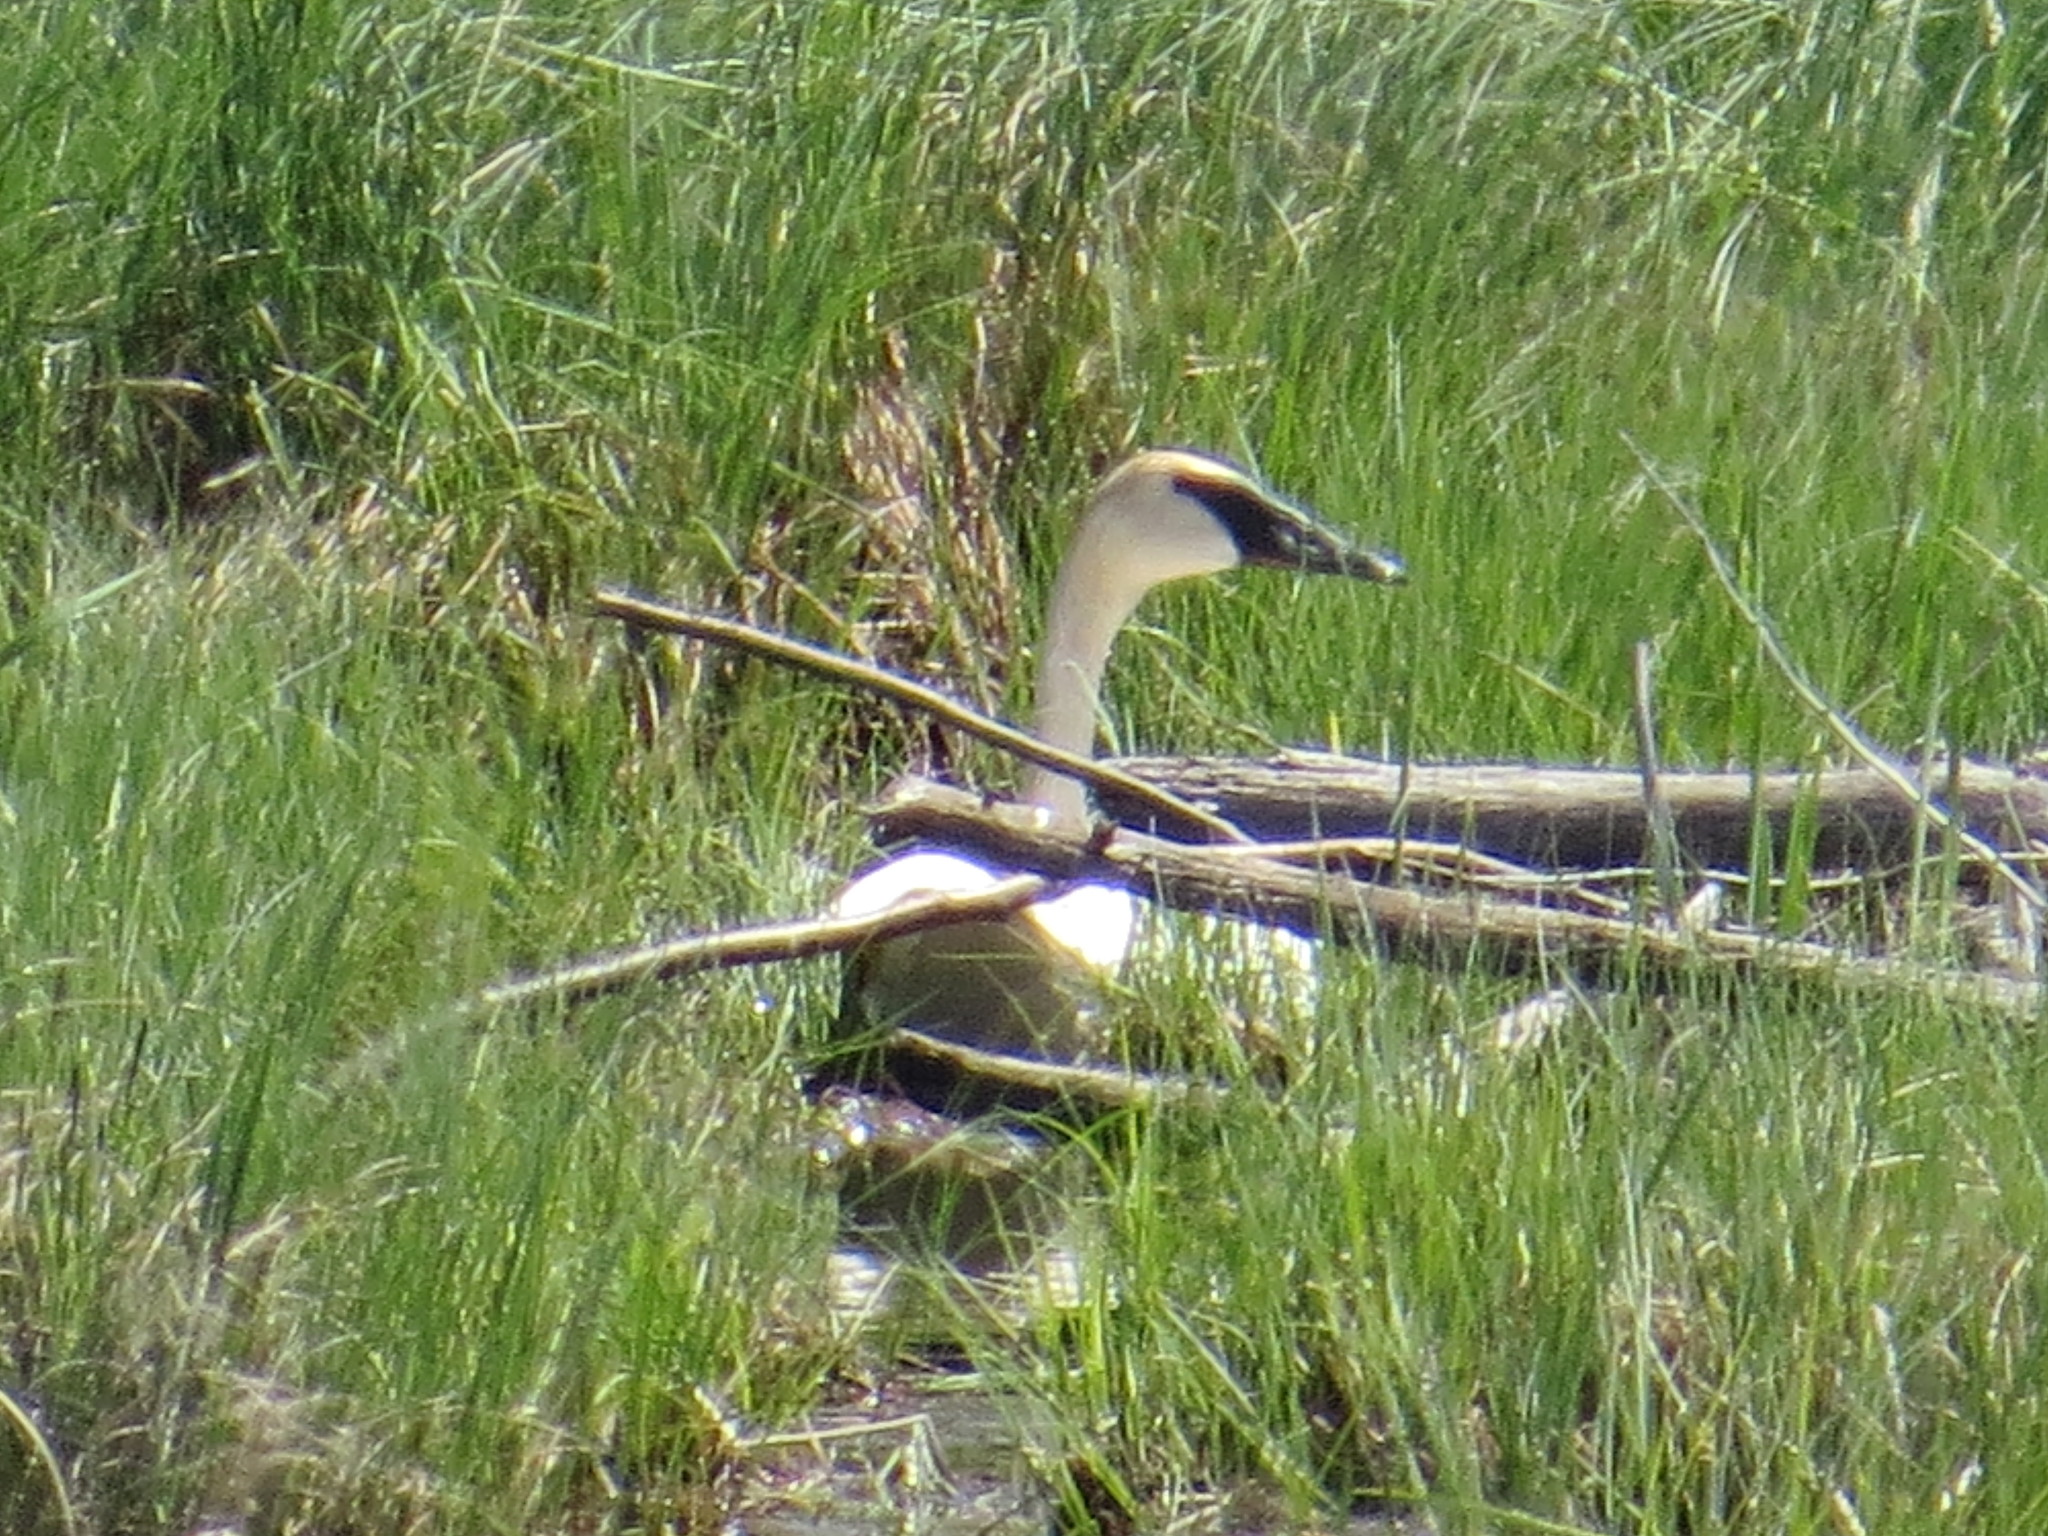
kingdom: Animalia
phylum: Chordata
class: Aves
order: Anseriformes
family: Anatidae
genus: Cygnus
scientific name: Cygnus buccinator
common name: Trumpeter swan
